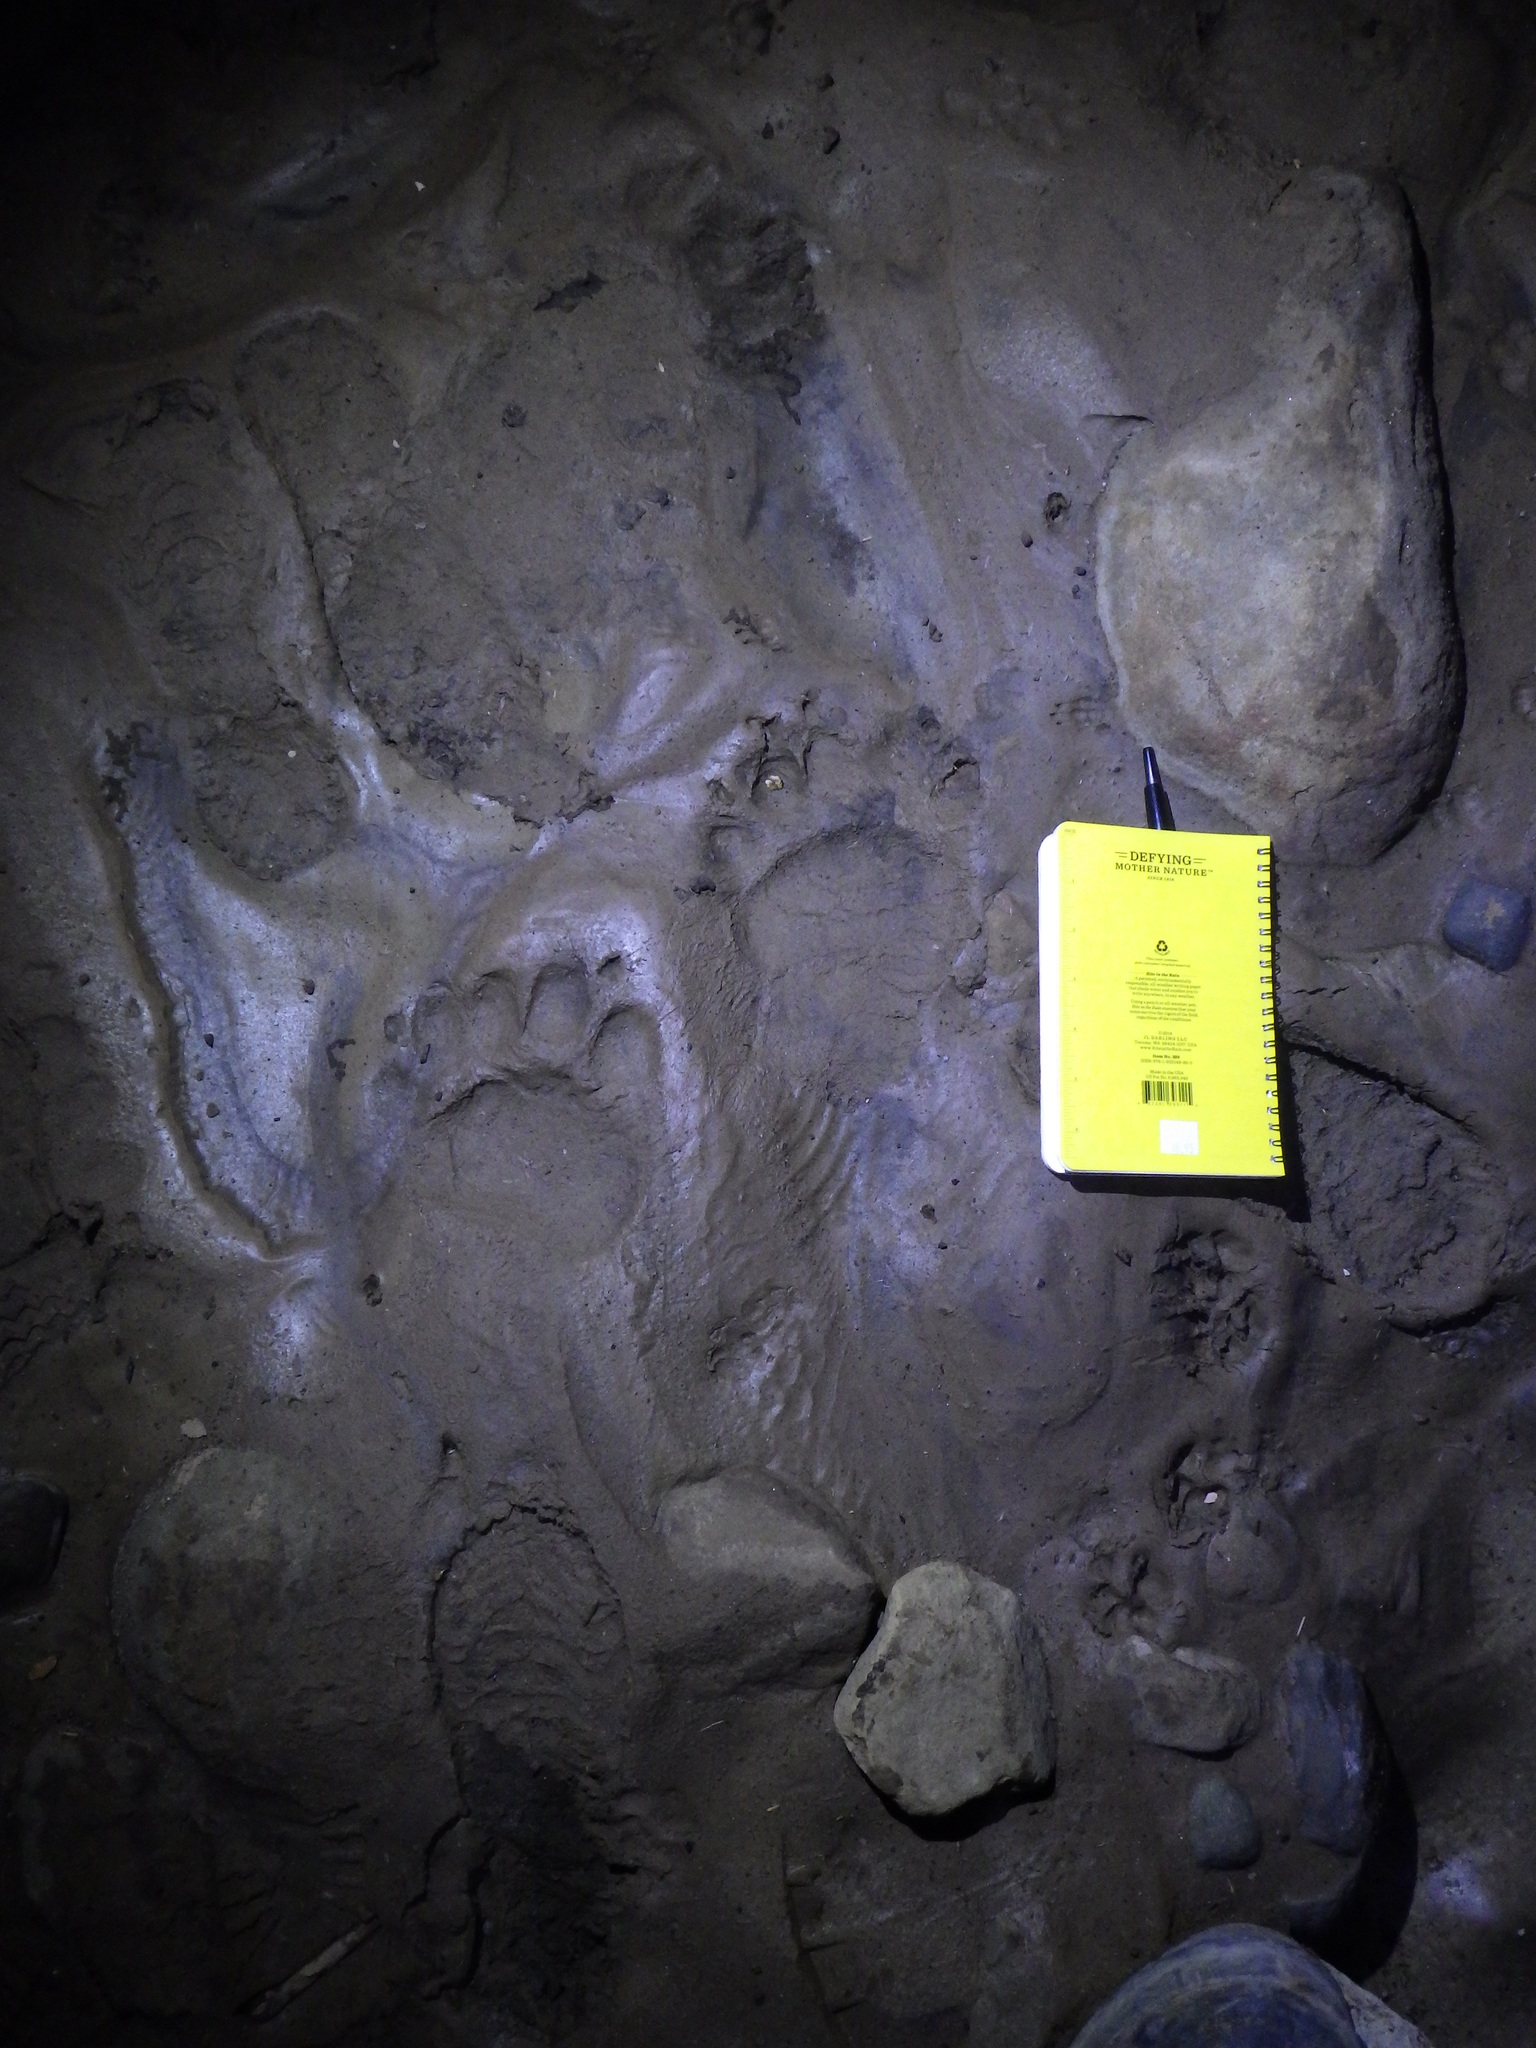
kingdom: Animalia
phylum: Chordata
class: Mammalia
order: Carnivora
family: Ursidae
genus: Ursus
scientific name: Ursus americanus
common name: American black bear
